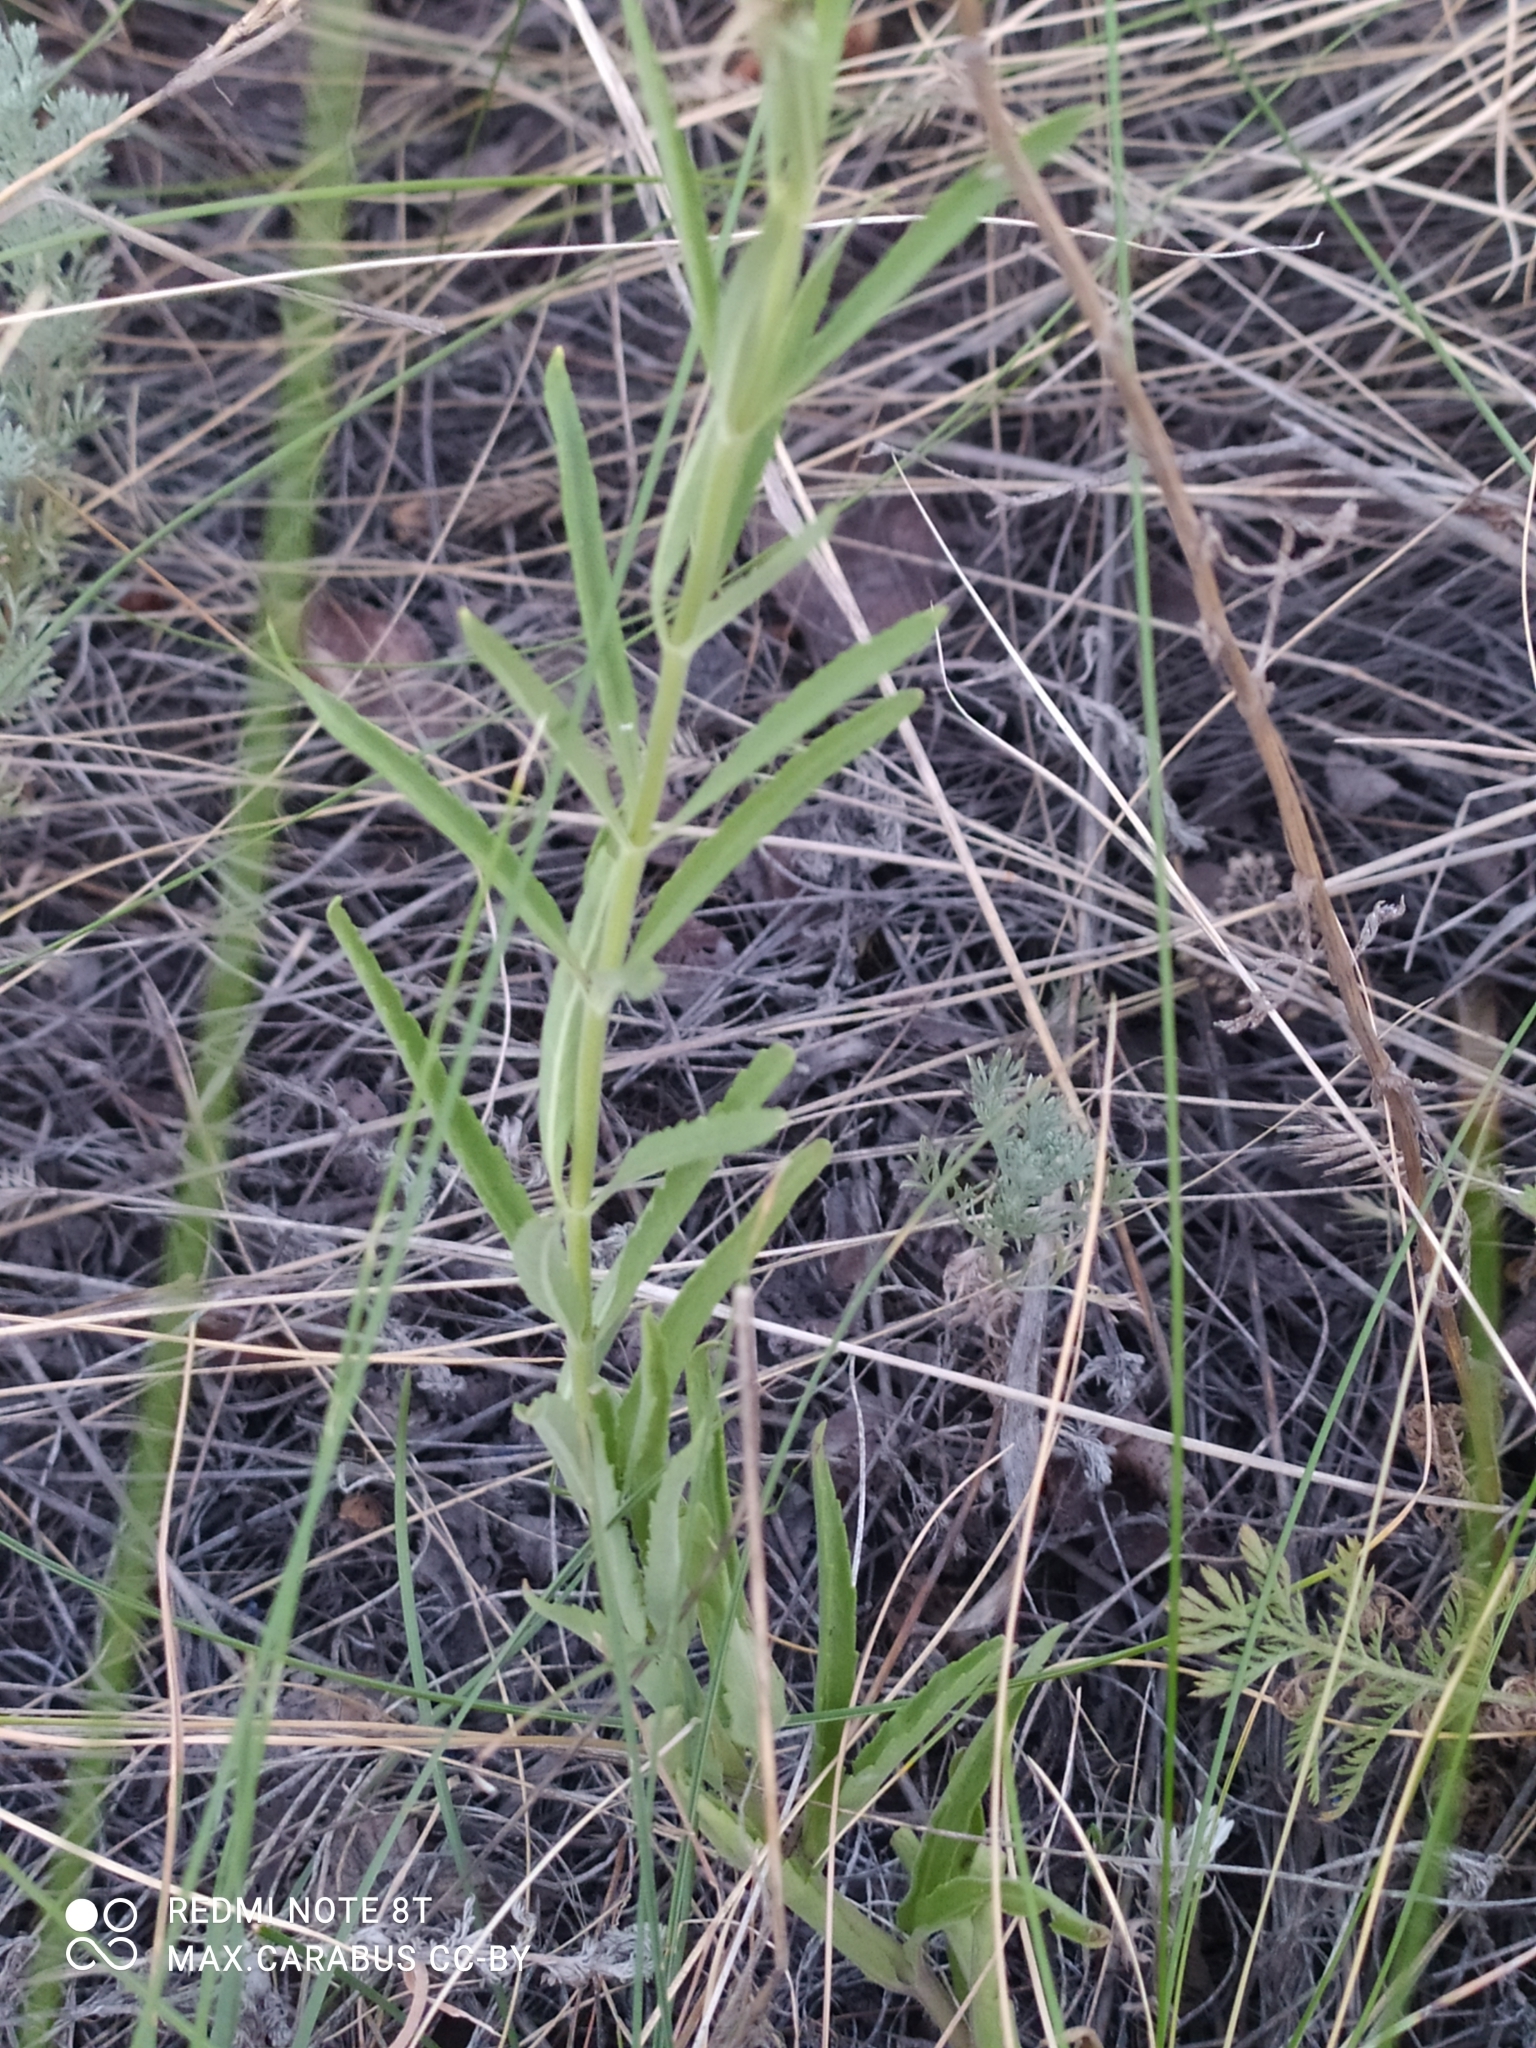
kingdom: Plantae
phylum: Tracheophyta
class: Magnoliopsida
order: Lamiales
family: Plantaginaceae
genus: Veronica
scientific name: Veronica spuria
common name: Bastard speedwell
